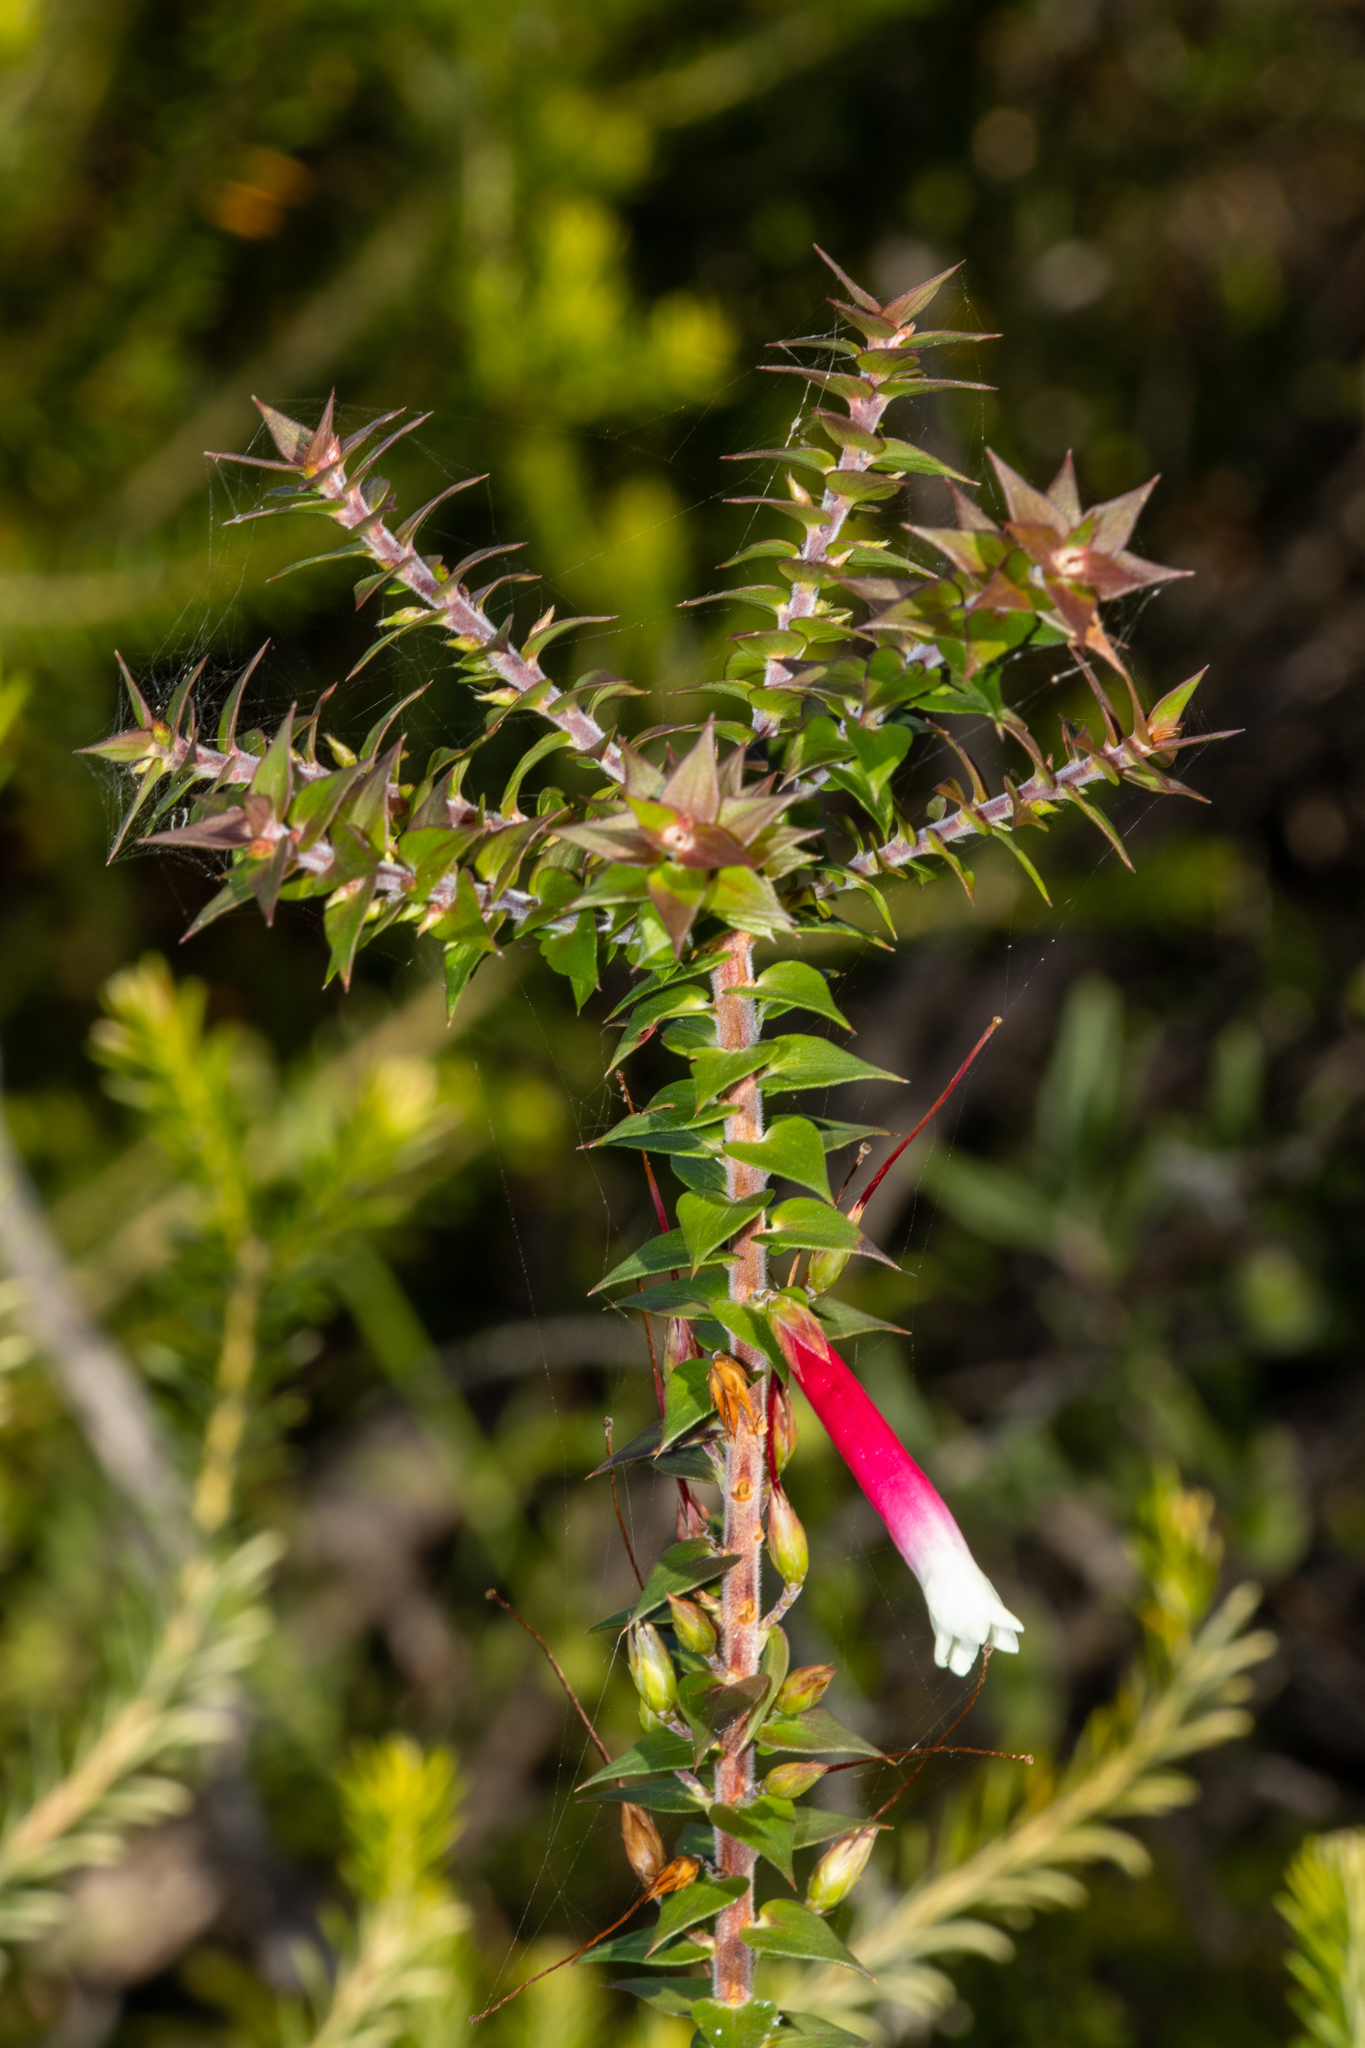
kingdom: Plantae
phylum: Tracheophyta
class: Magnoliopsida
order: Ericales
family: Ericaceae
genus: Epacris
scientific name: Epacris longiflora
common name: Fuchsia-heath
